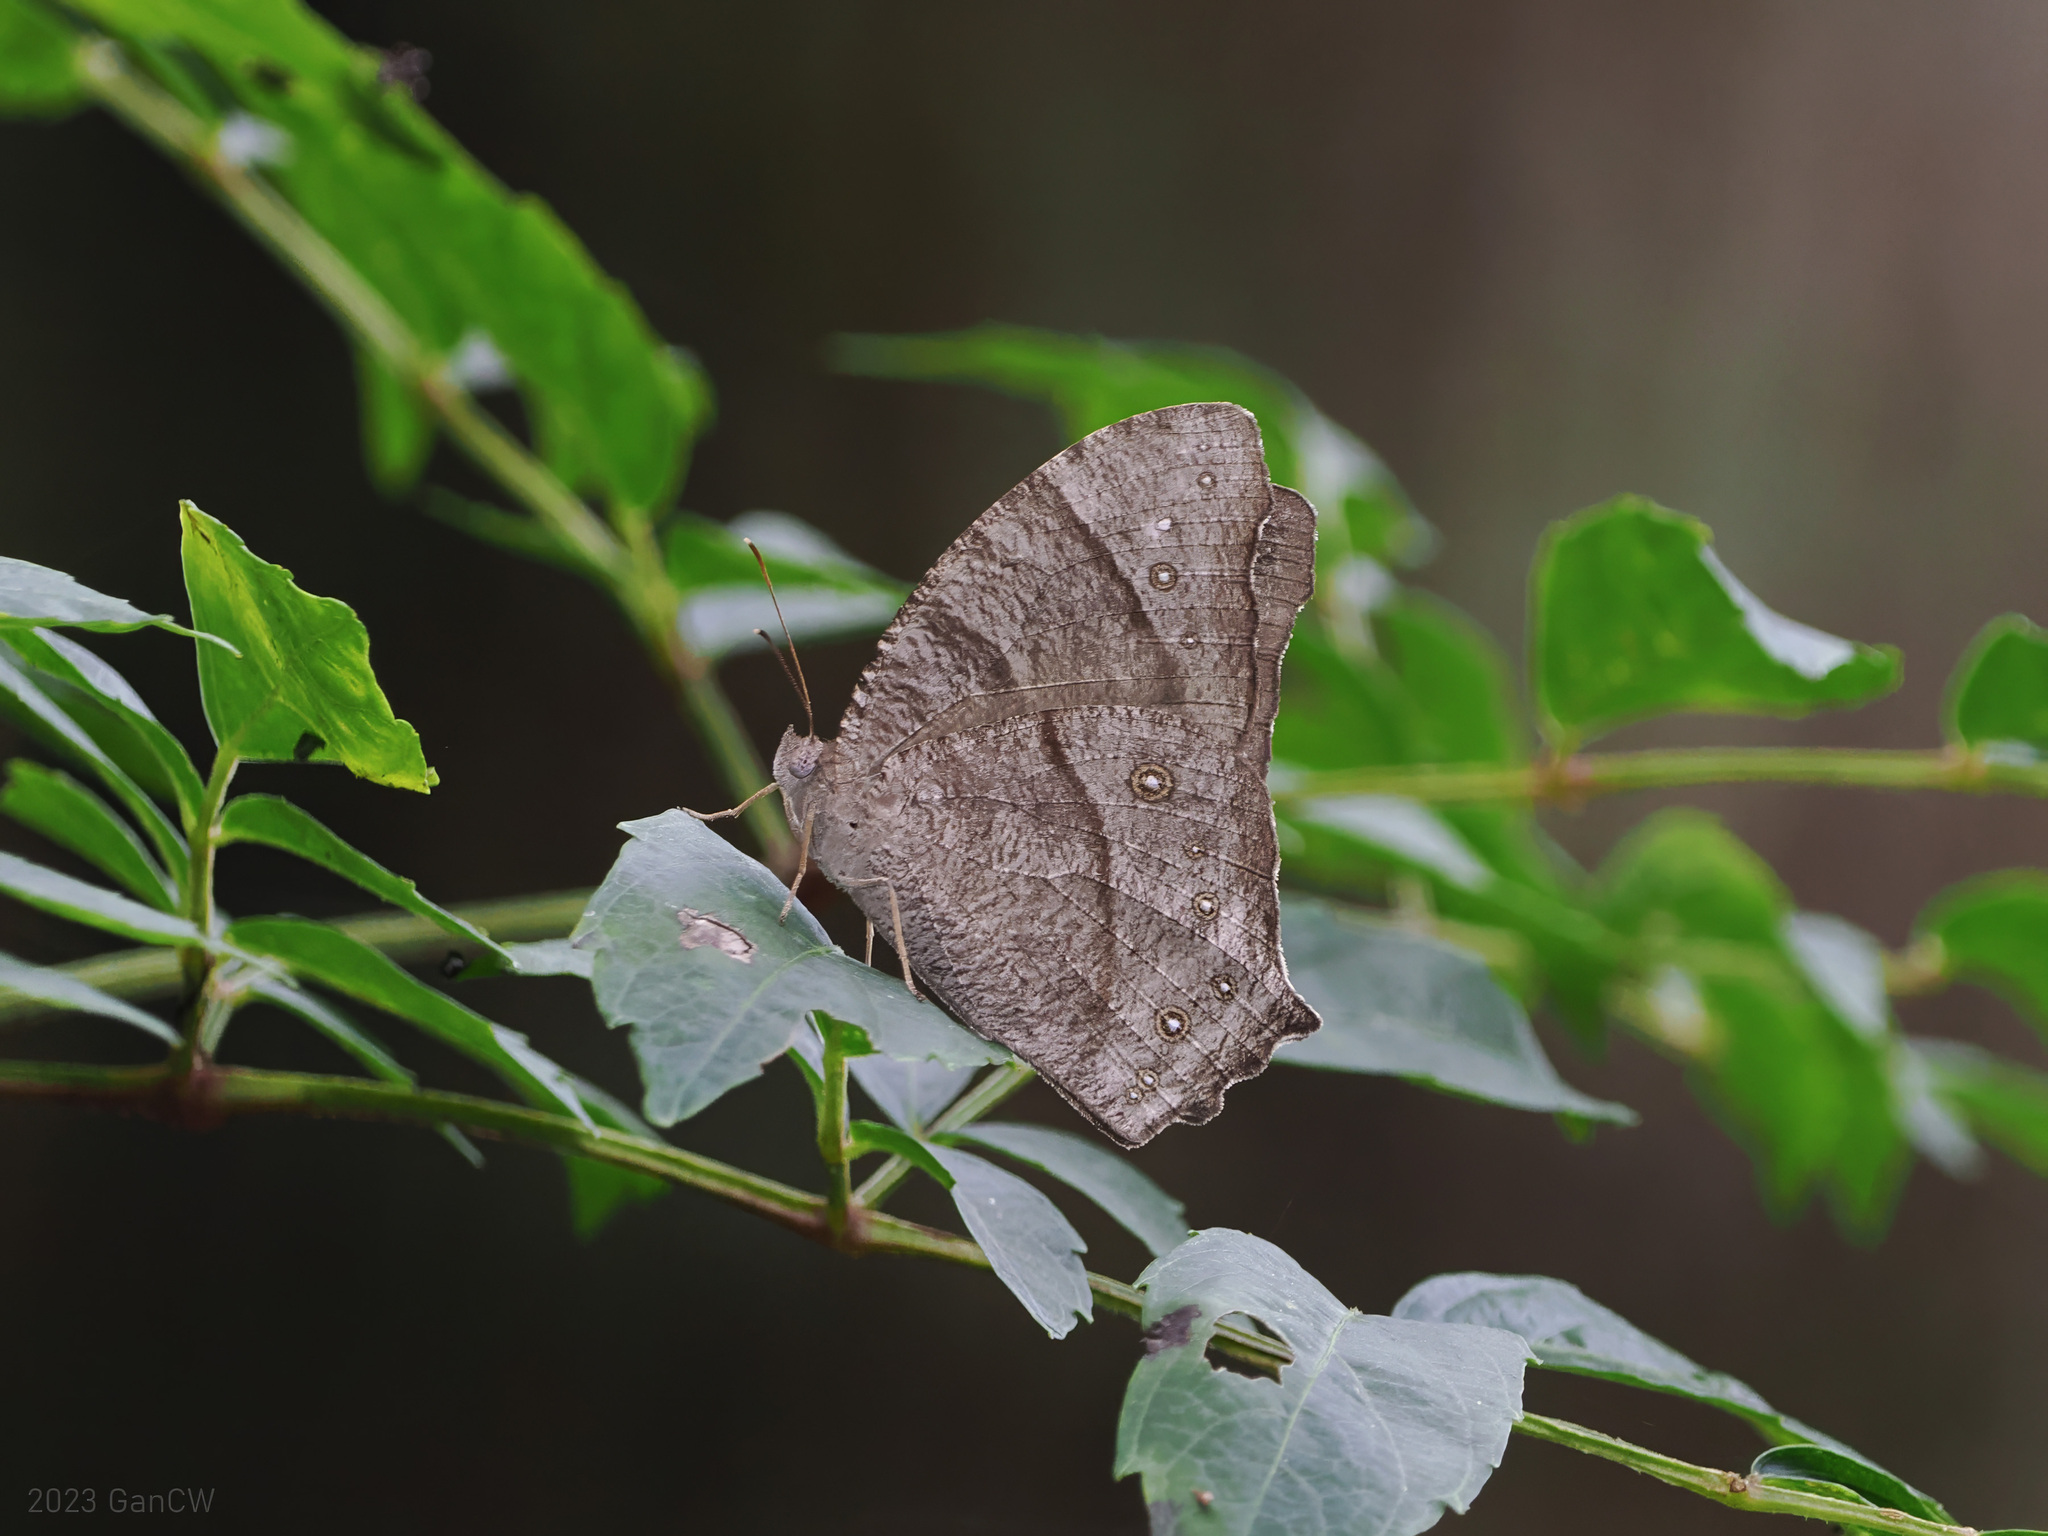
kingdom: Animalia
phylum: Arthropoda
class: Insecta
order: Lepidoptera
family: Nymphalidae
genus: Melanitis
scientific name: Melanitis leda
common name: Twilight brown
